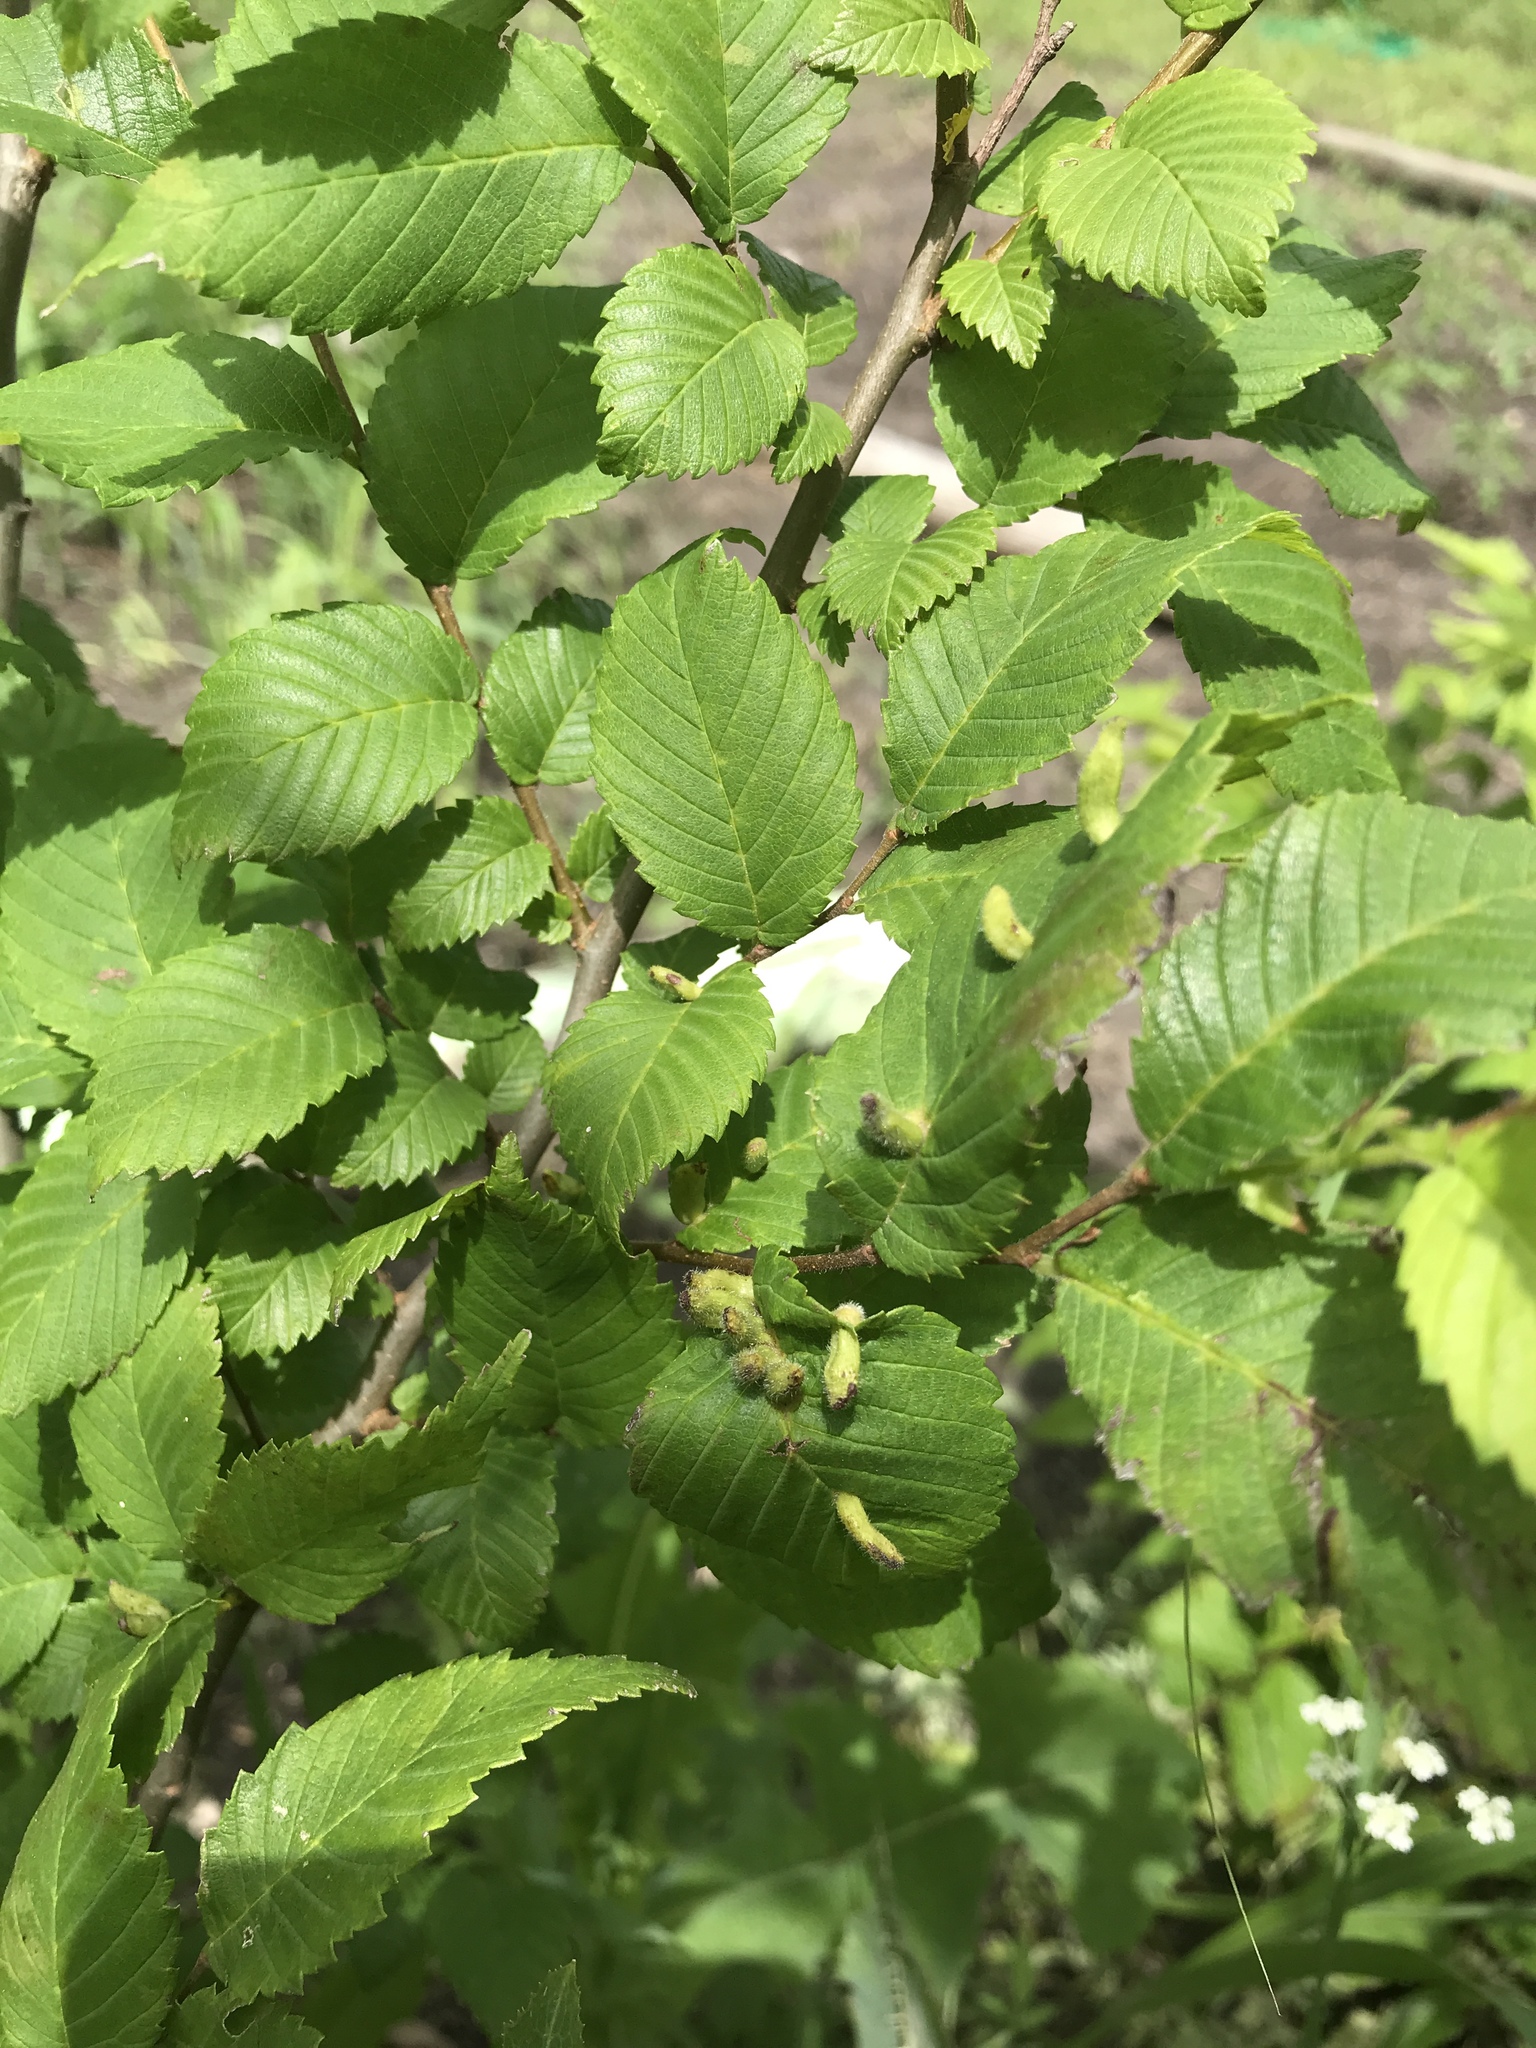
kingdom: Animalia
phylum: Arthropoda
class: Arachnida
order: Trombidiformes
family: Eriophyidae
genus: Aceria
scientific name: Aceria
